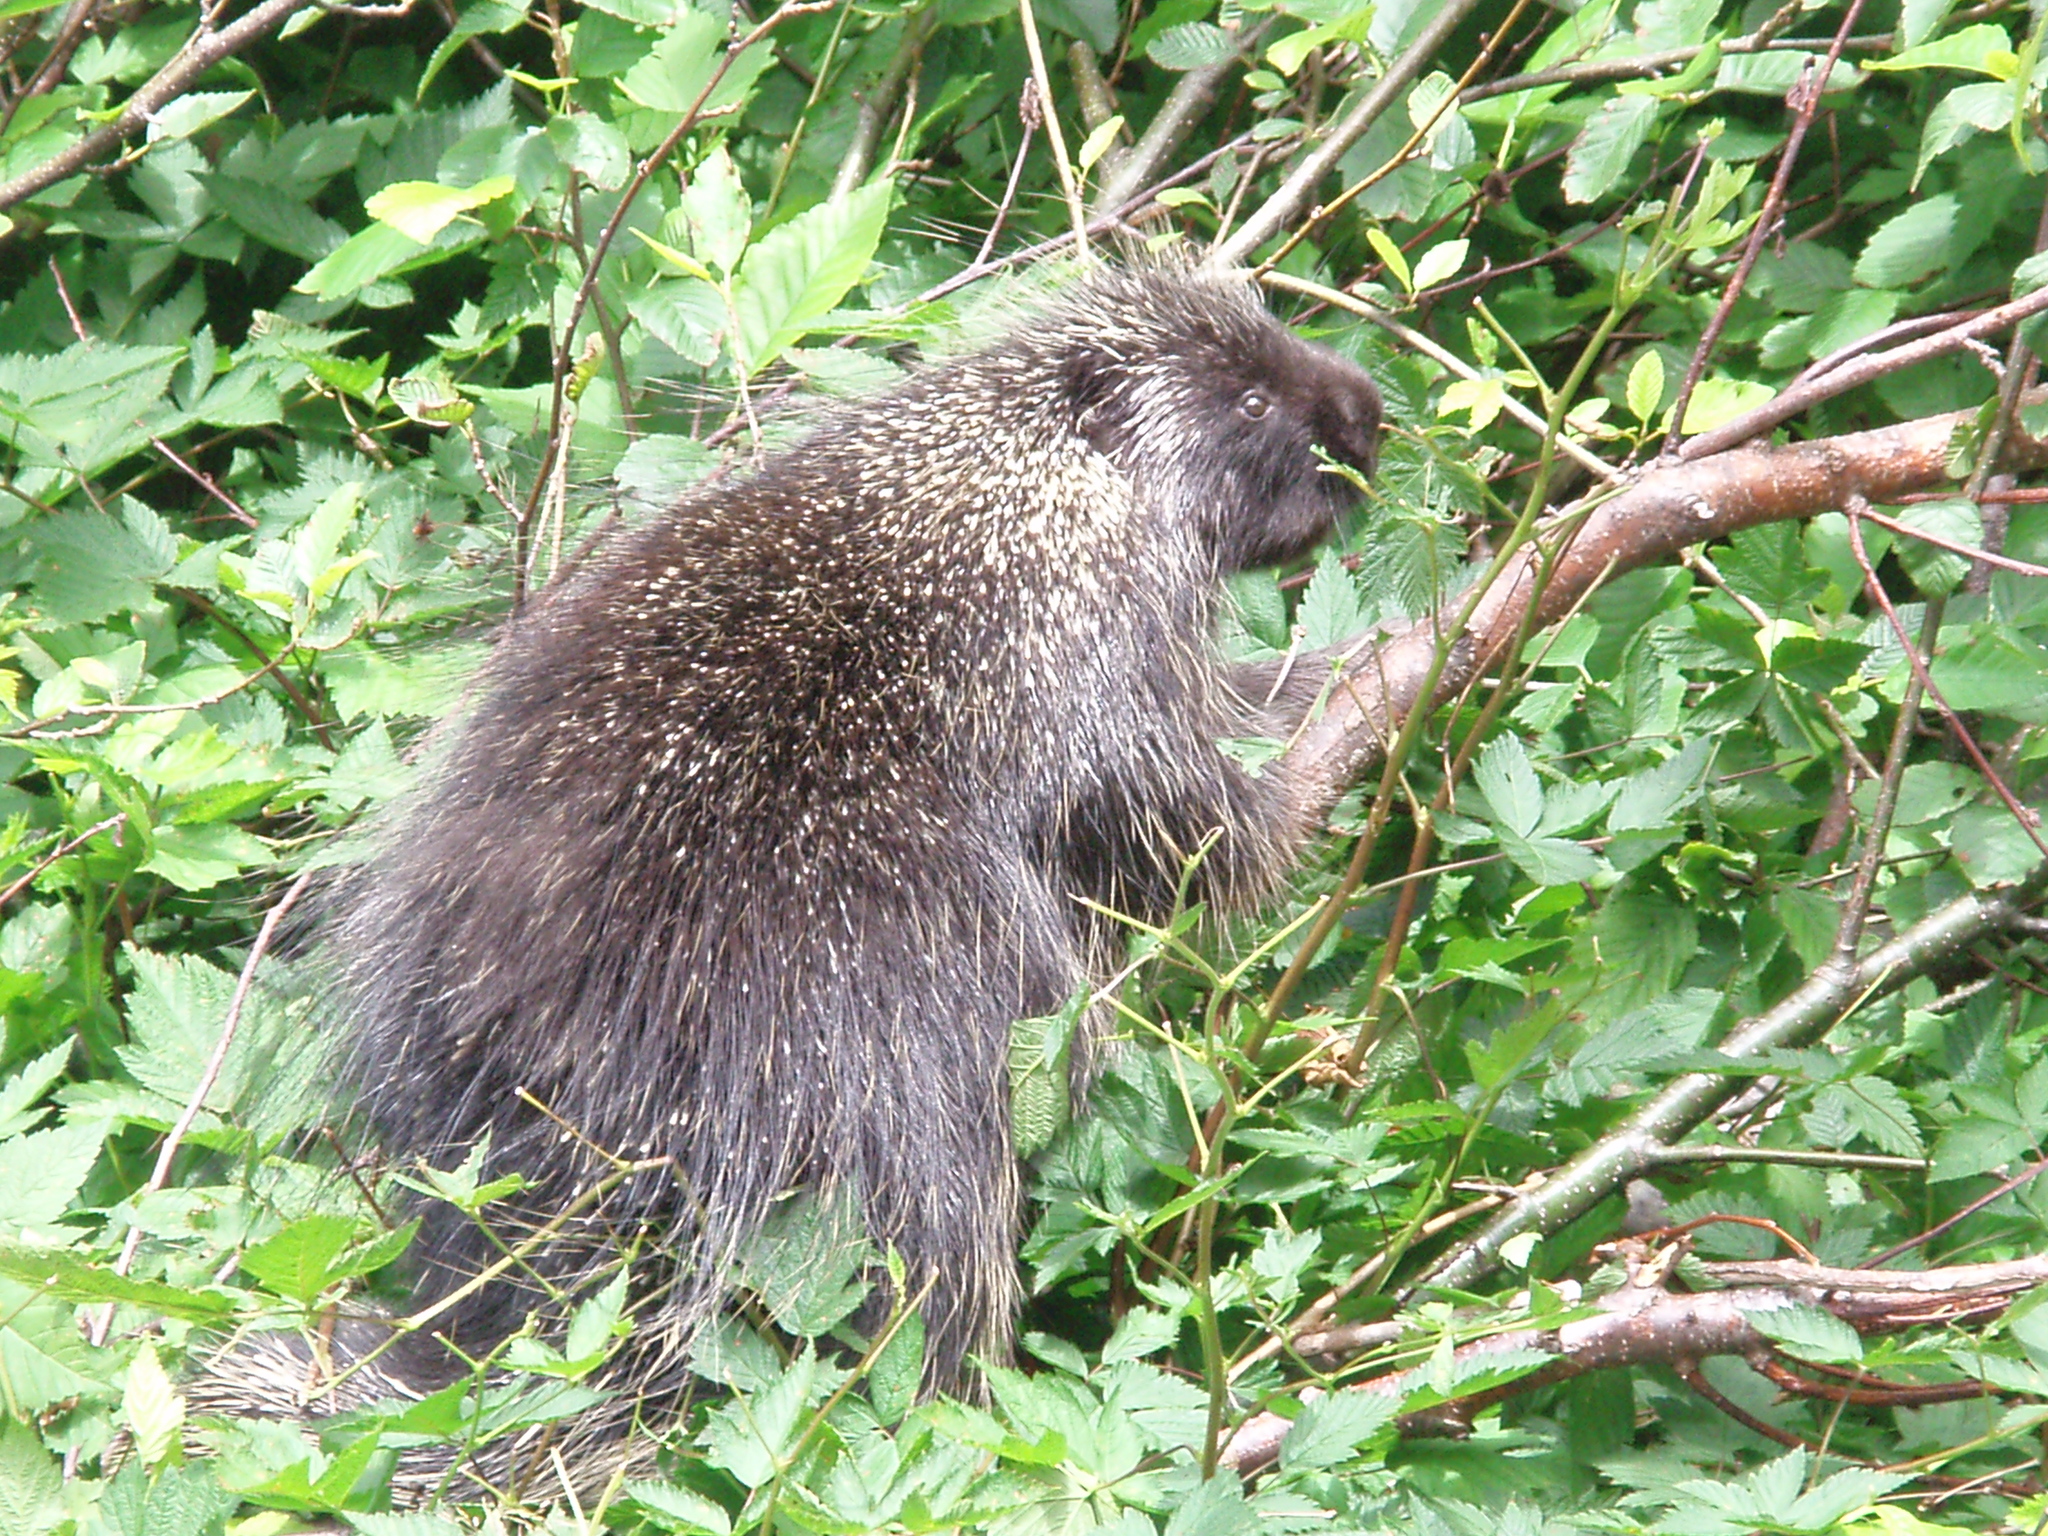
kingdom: Animalia
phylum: Chordata
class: Mammalia
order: Rodentia
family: Erethizontidae
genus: Erethizon
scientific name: Erethizon dorsatus
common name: North american porcupine
